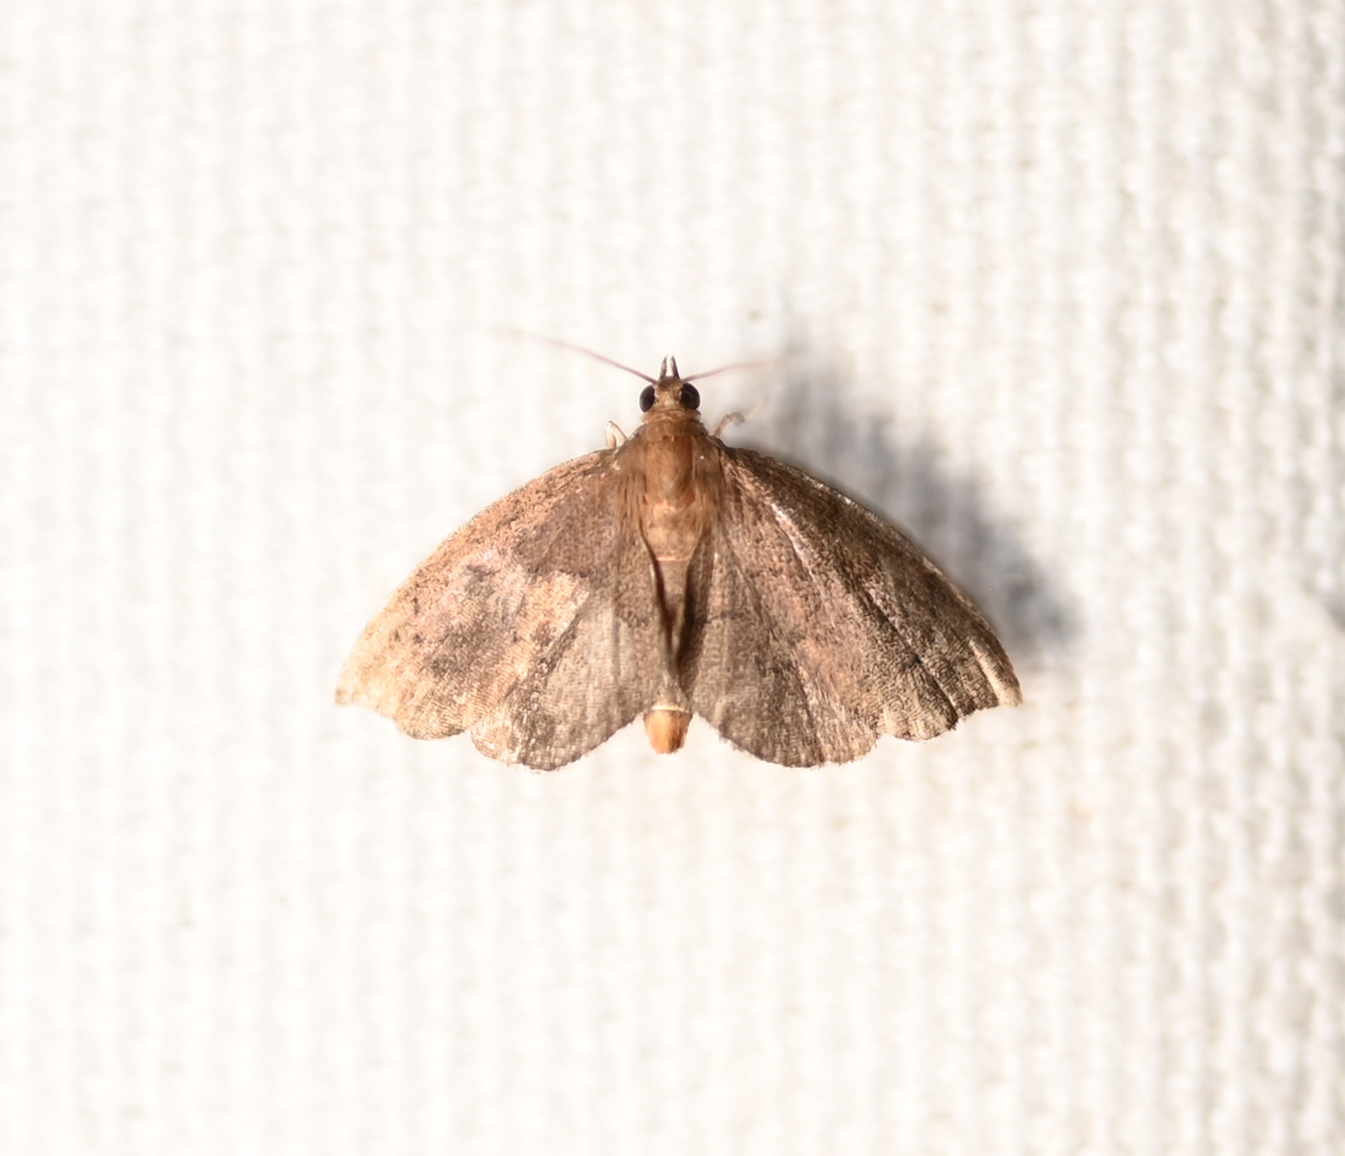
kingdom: Animalia
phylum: Arthropoda
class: Insecta
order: Lepidoptera
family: Crambidae
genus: Perispasta
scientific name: Perispasta caeculalis
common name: Titian peale's moth
